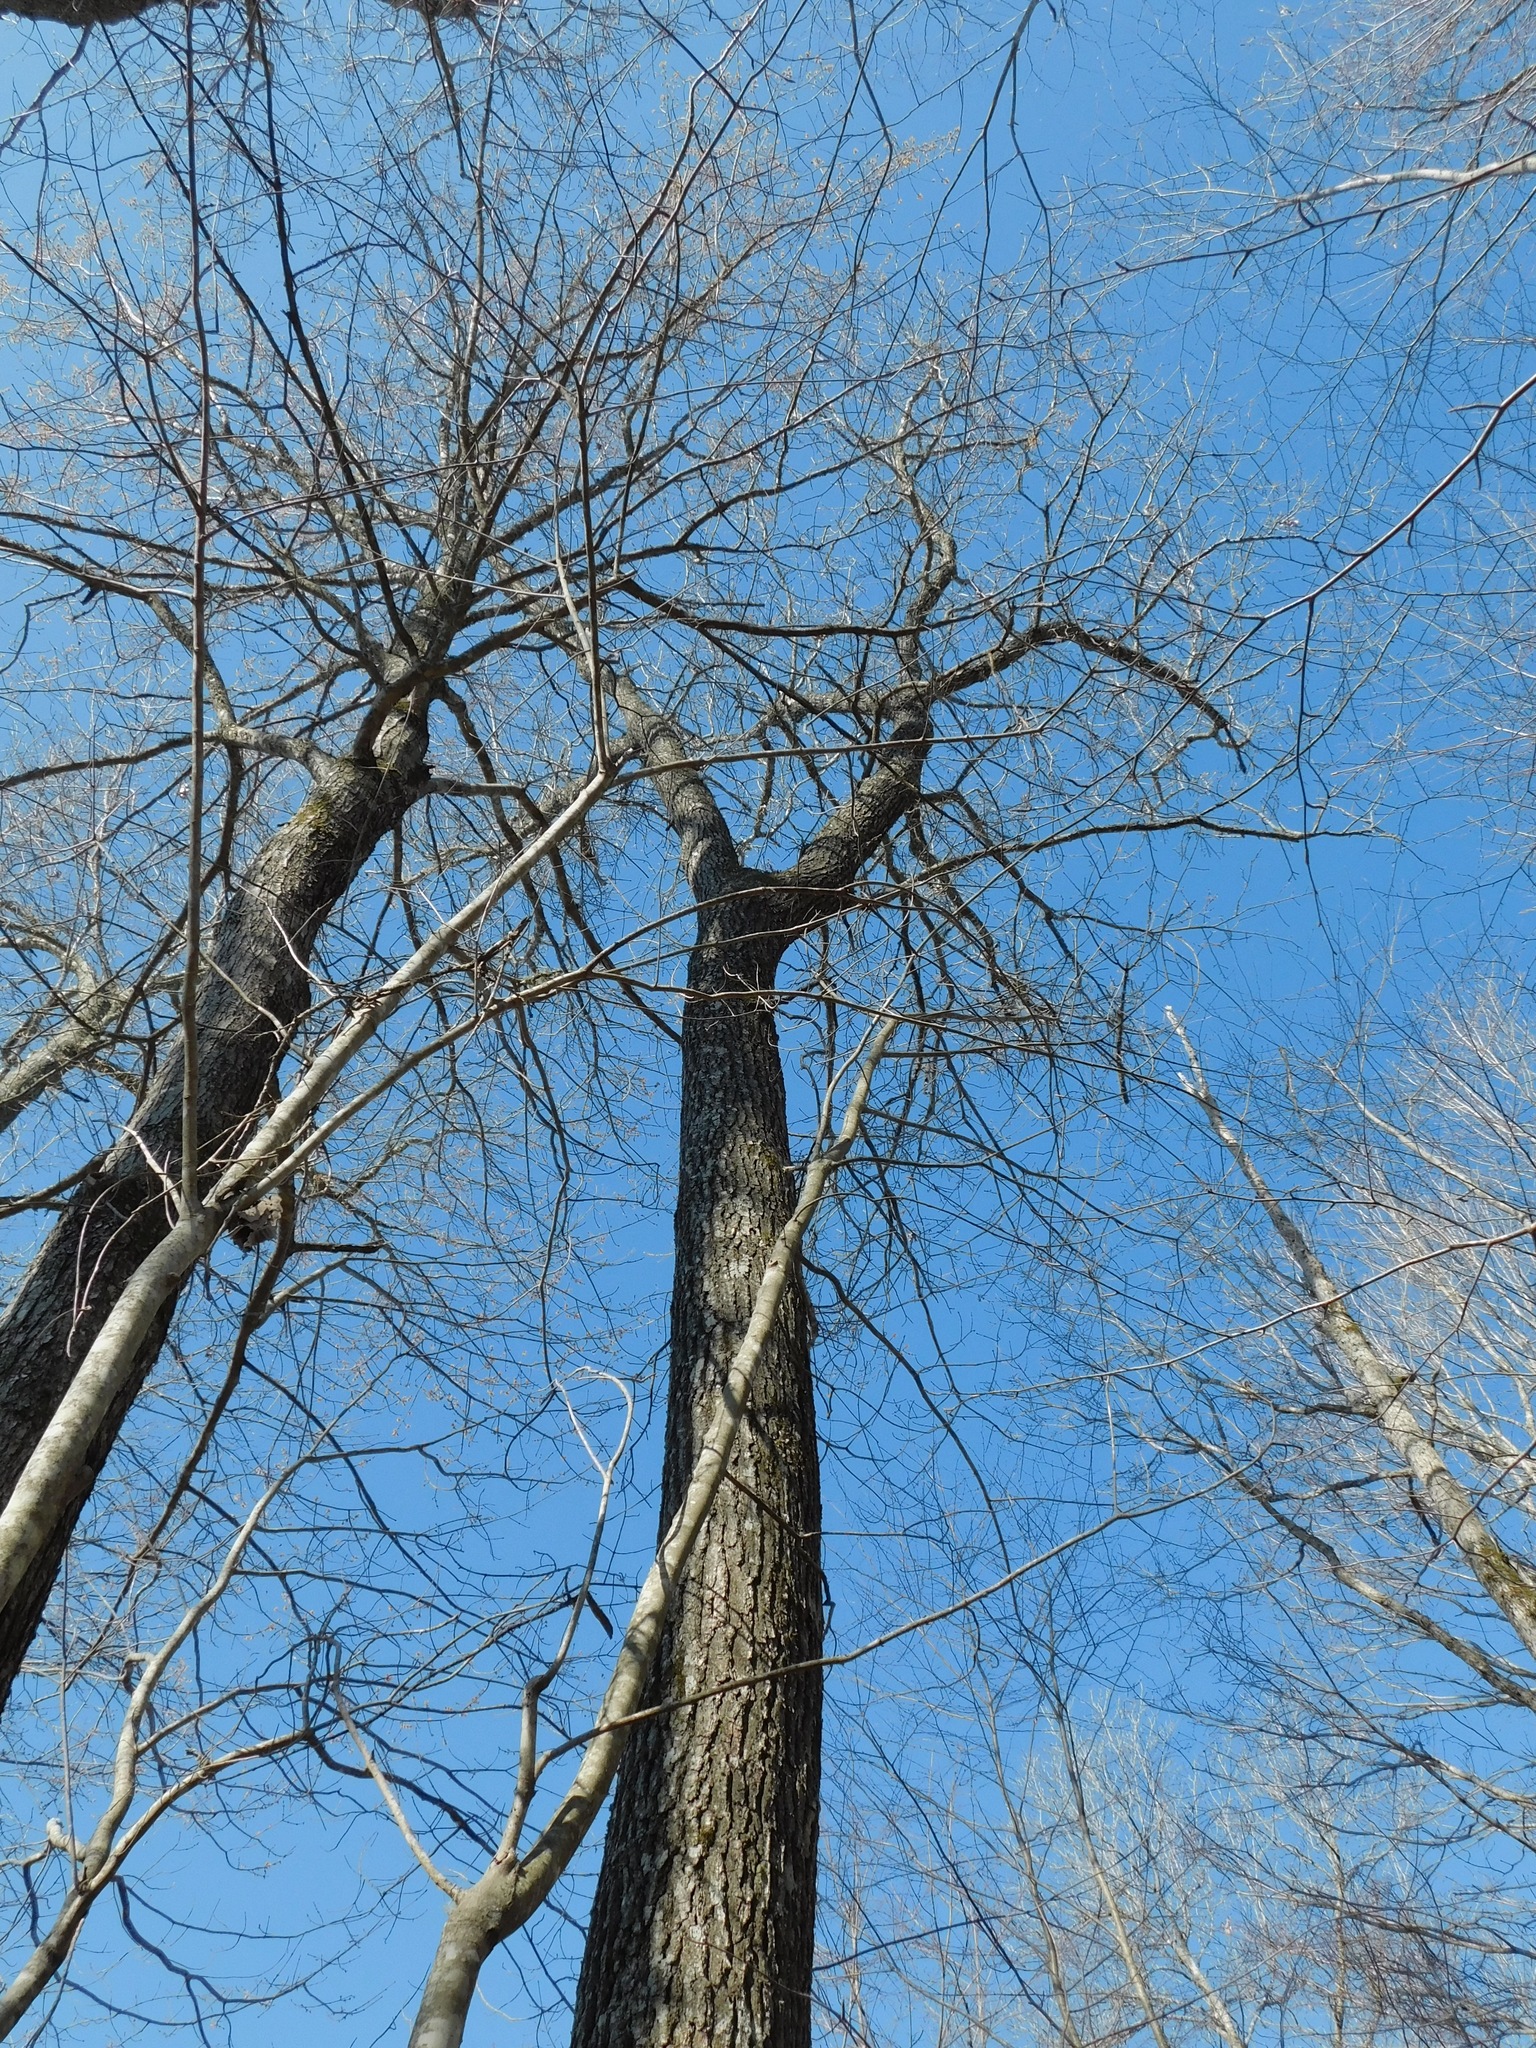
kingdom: Plantae
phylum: Tracheophyta
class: Magnoliopsida
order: Fagales
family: Fagaceae
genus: Quercus
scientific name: Quercus velutina
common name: Black oak
